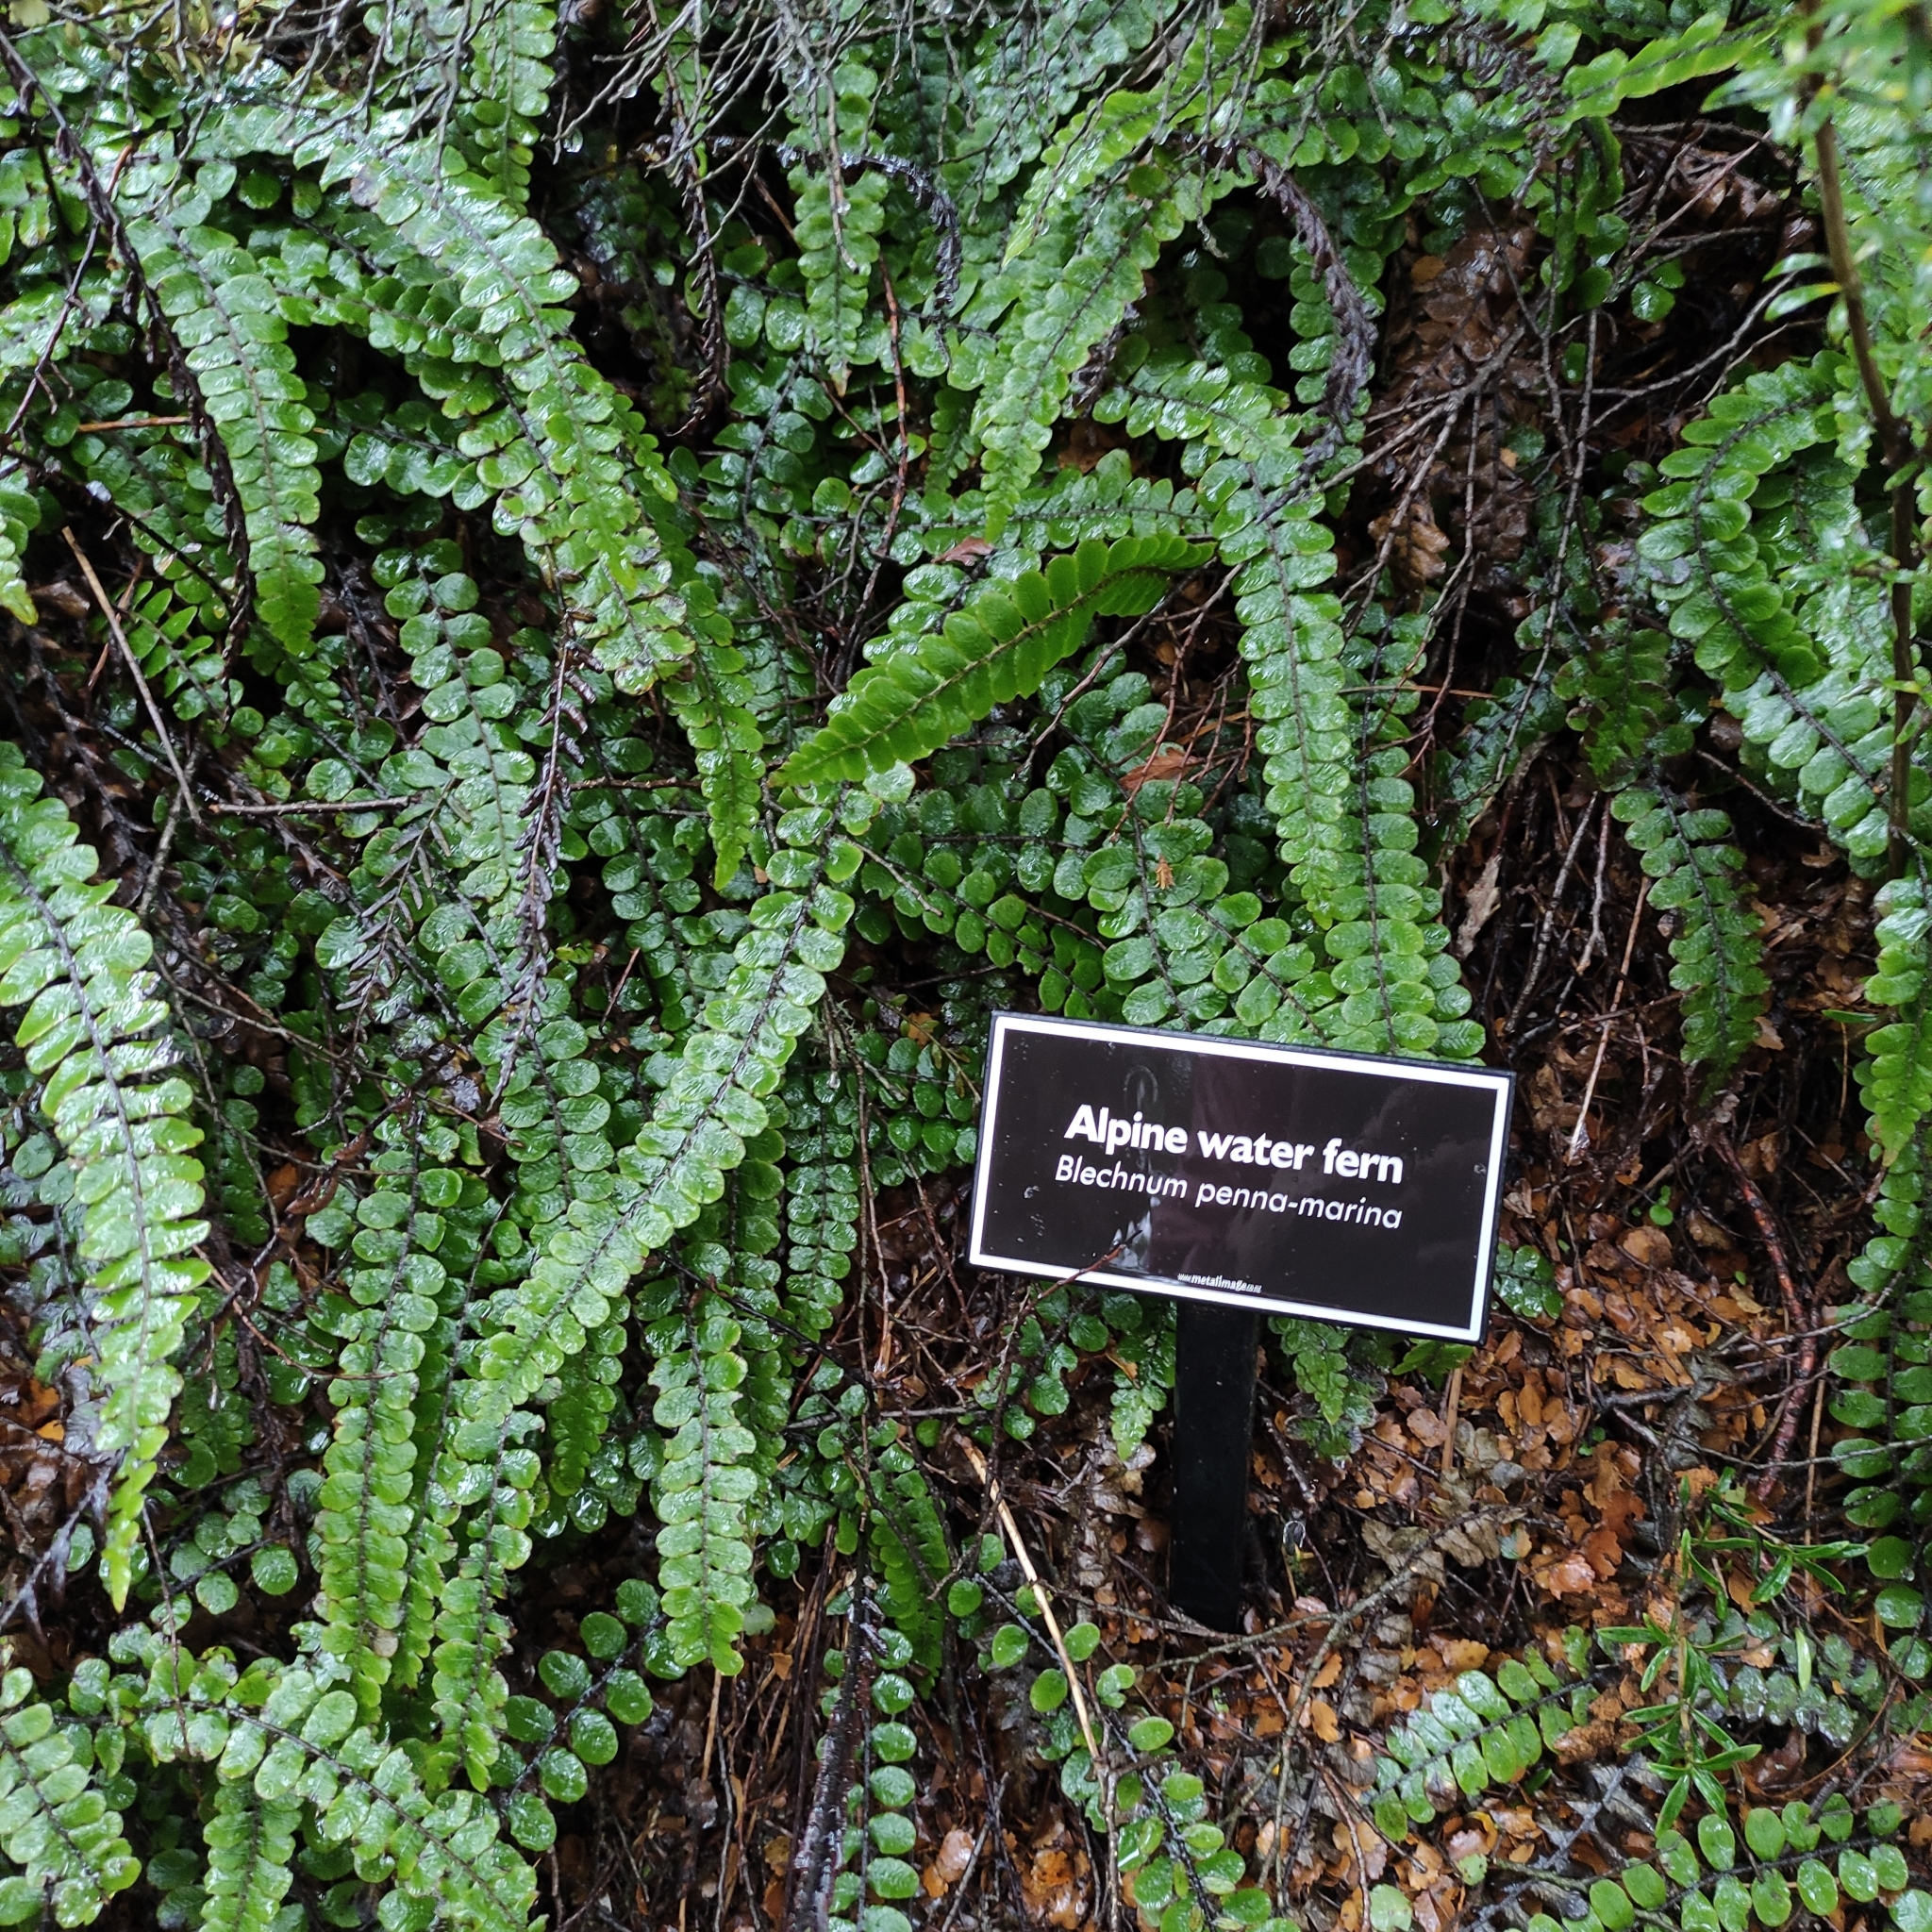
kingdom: Plantae
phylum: Tracheophyta
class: Polypodiopsida
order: Polypodiales
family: Blechnaceae
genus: Cranfillia
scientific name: Cranfillia fluviatilis
